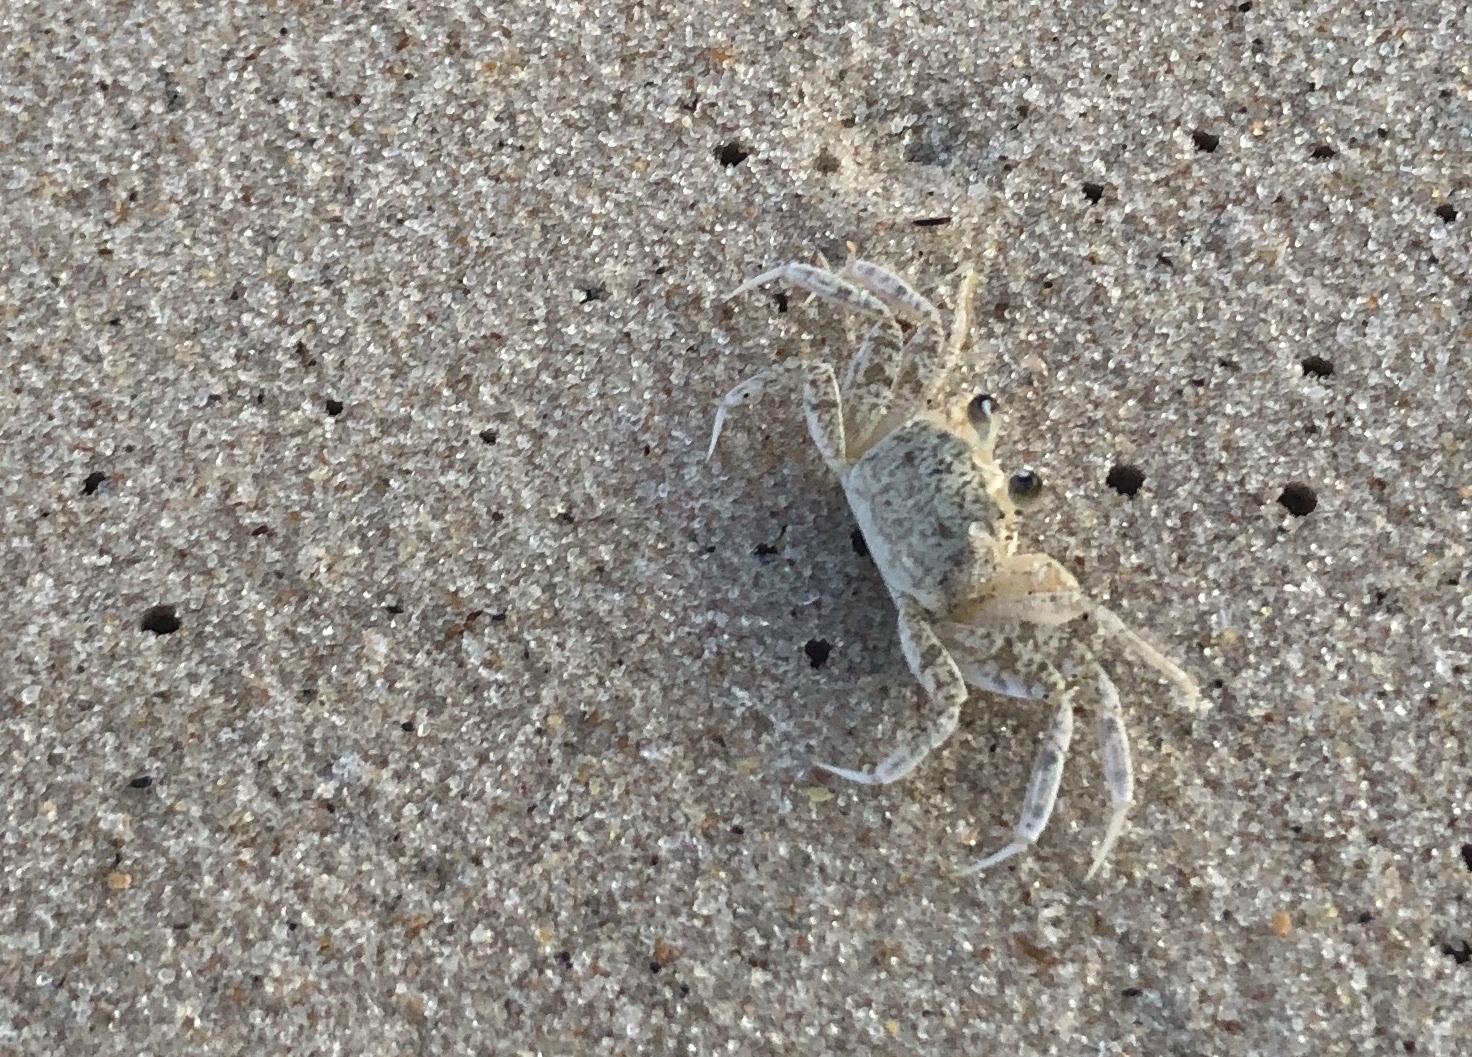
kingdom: Animalia
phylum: Arthropoda
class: Malacostraca
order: Decapoda
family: Ocypodidae
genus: Ocypode
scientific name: Ocypode quadrata
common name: Ghost crab
